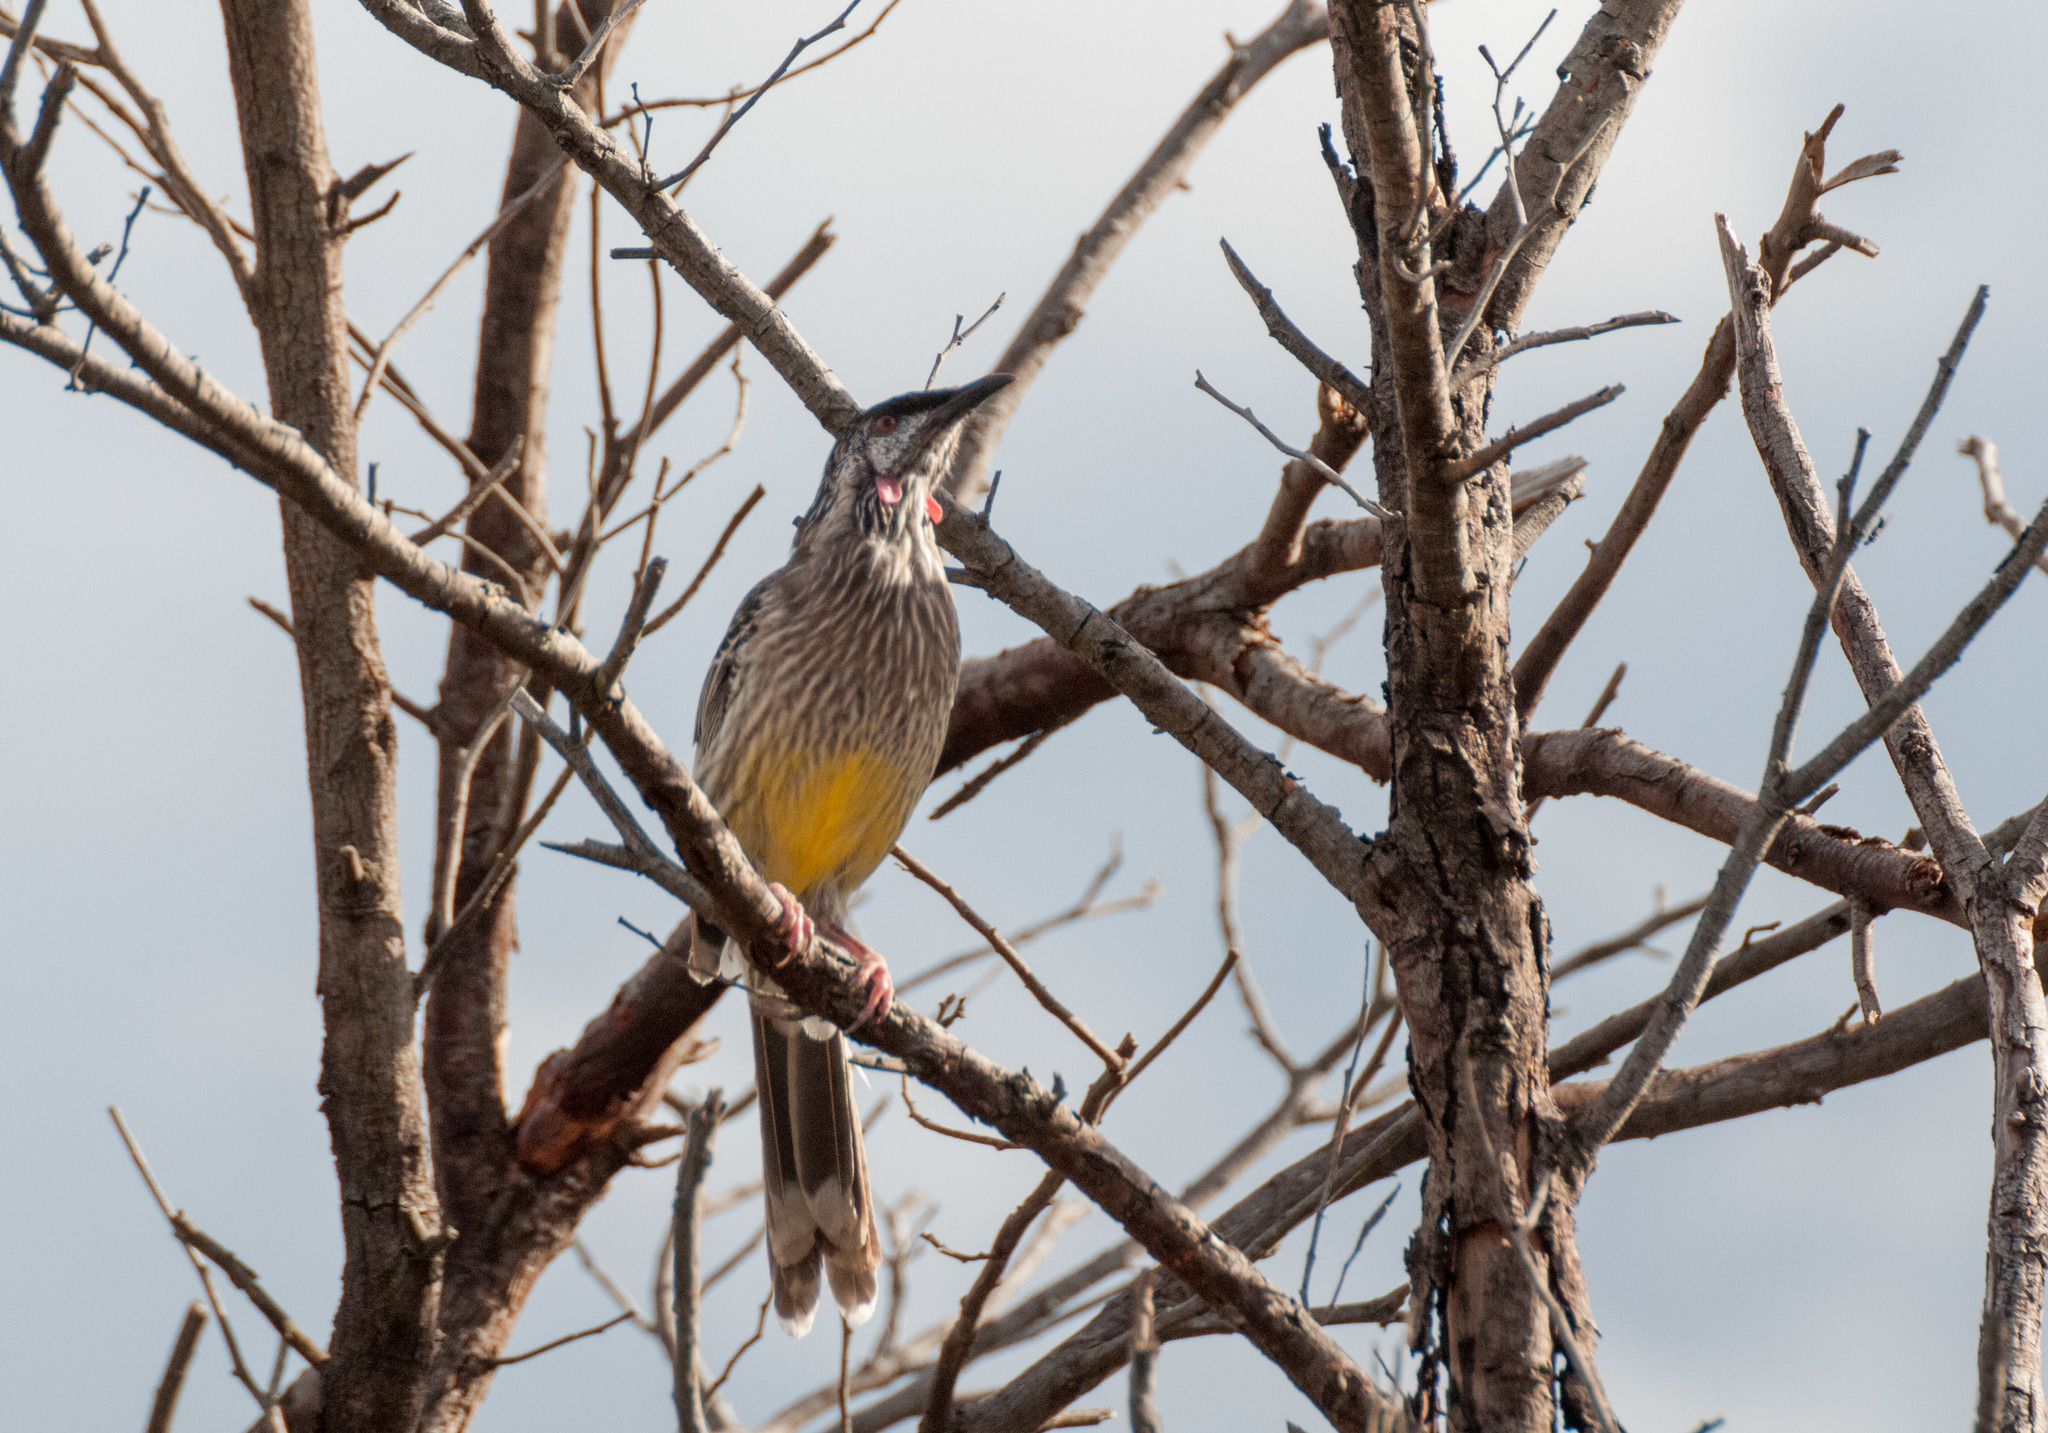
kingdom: Animalia
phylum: Chordata
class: Aves
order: Passeriformes
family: Meliphagidae
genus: Anthochaera
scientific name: Anthochaera carunculata
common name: Red wattlebird
